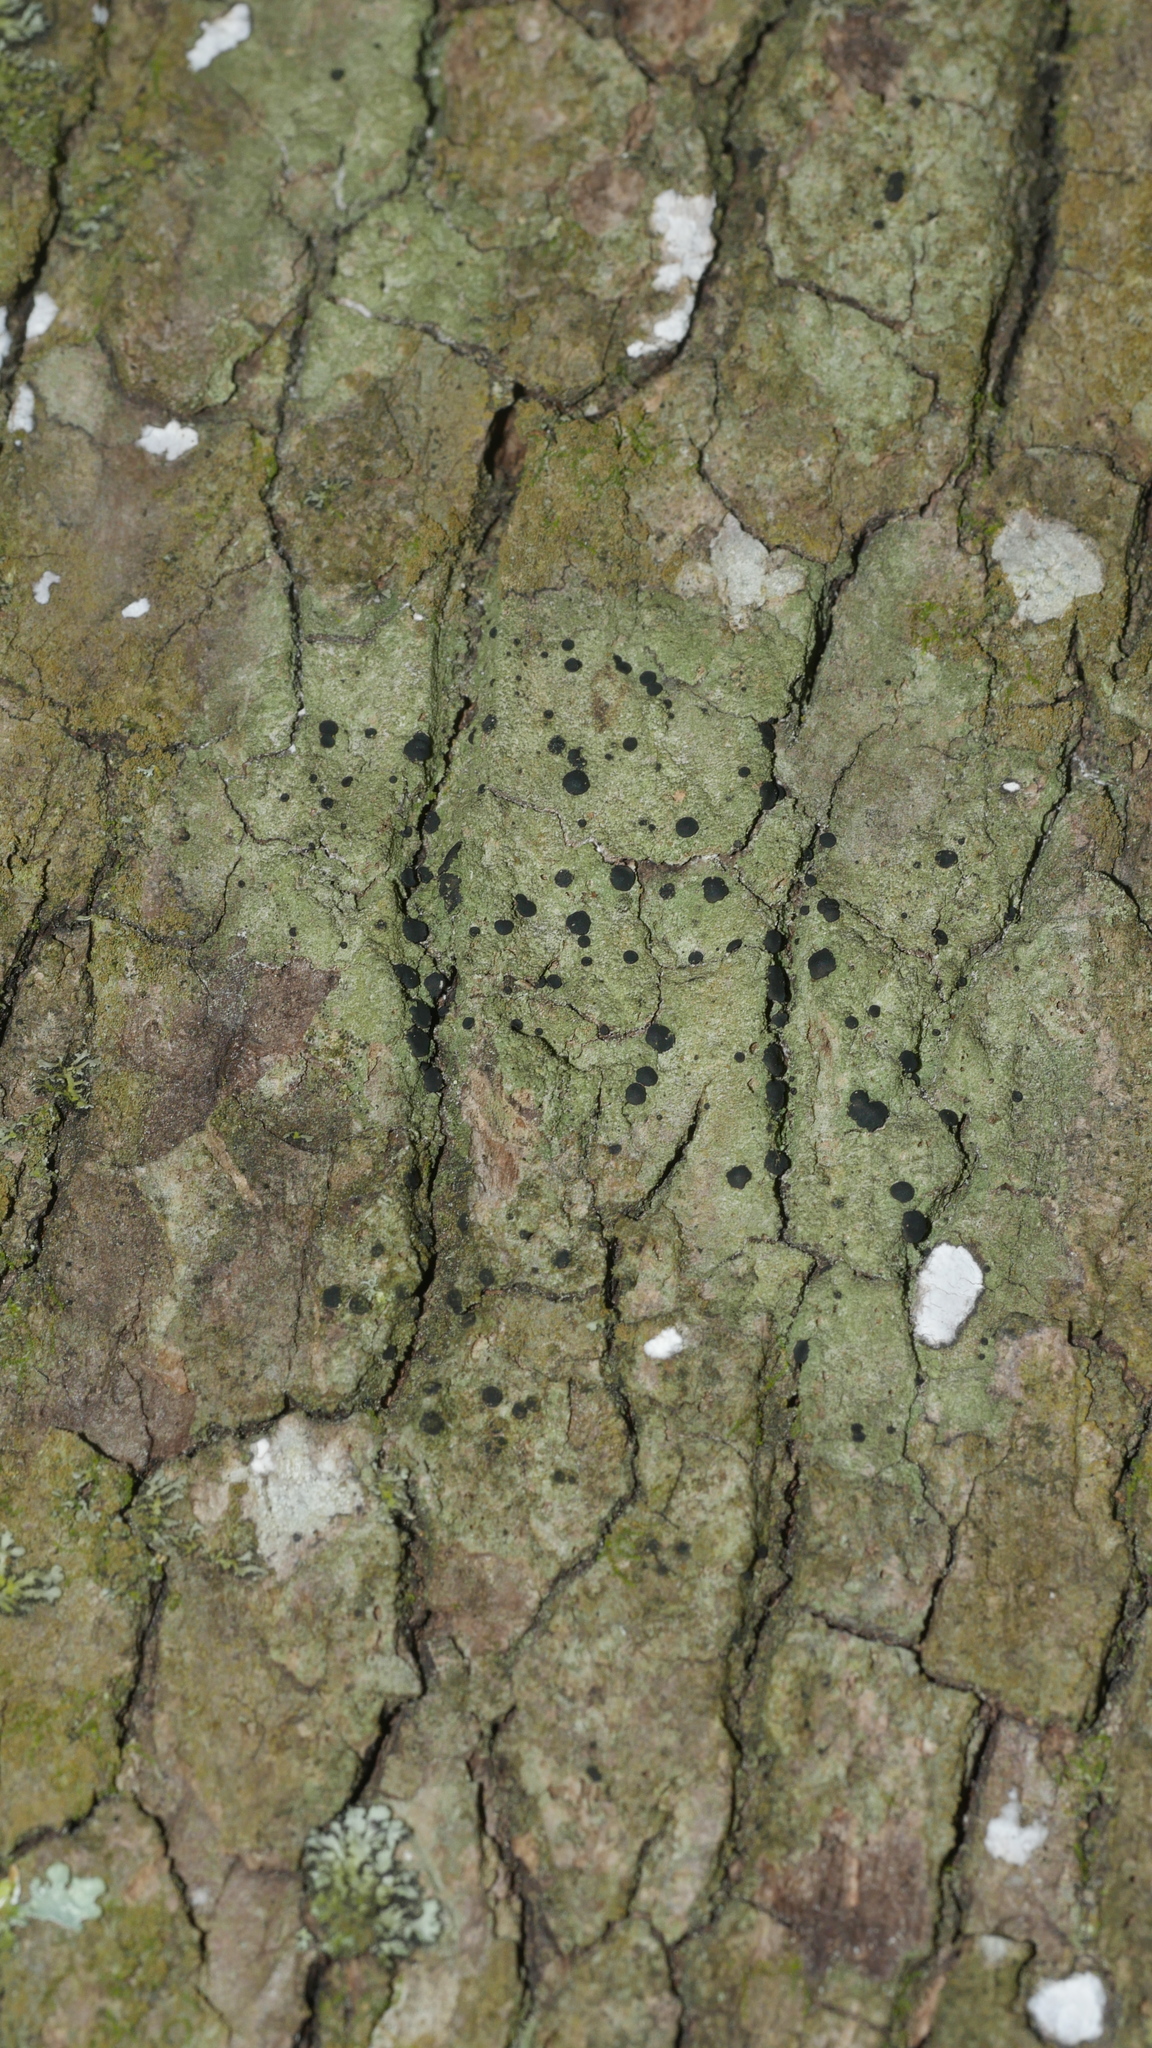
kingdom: Fungi
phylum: Ascomycota
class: Lecanoromycetes
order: Lecanorales
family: Ramalinaceae
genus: Bacidia
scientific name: Bacidia schweinitzii
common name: Surprise lichen
